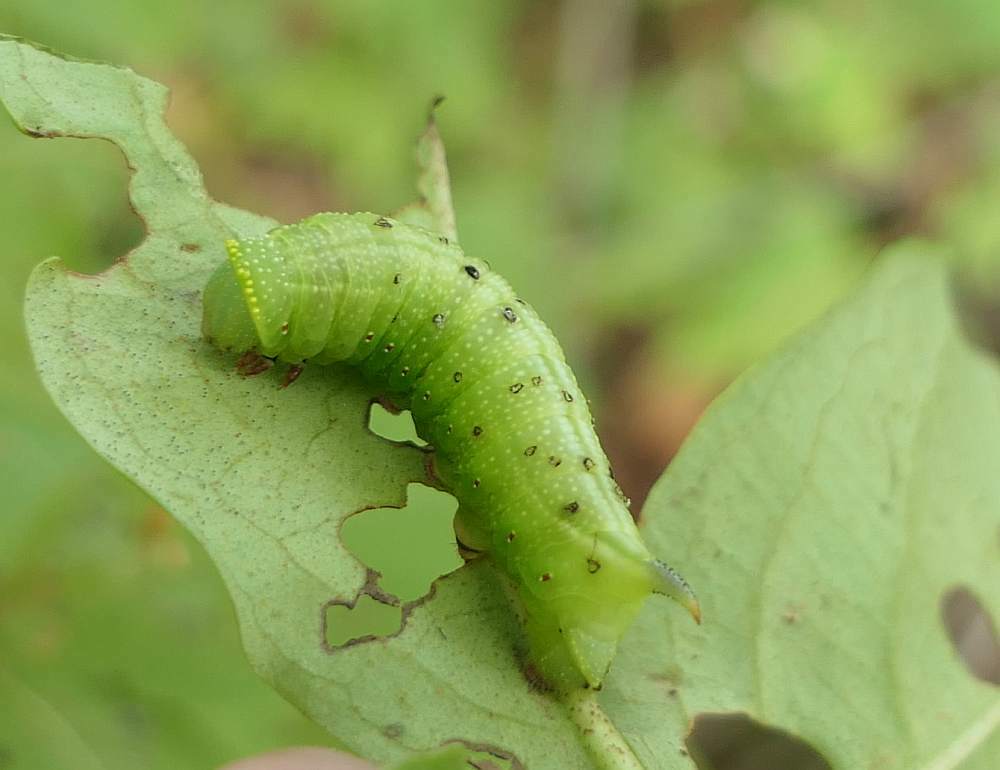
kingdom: Animalia
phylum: Arthropoda
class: Insecta
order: Lepidoptera
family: Sphingidae
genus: Hemaris
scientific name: Hemaris thysbe
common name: Common clear-wing
